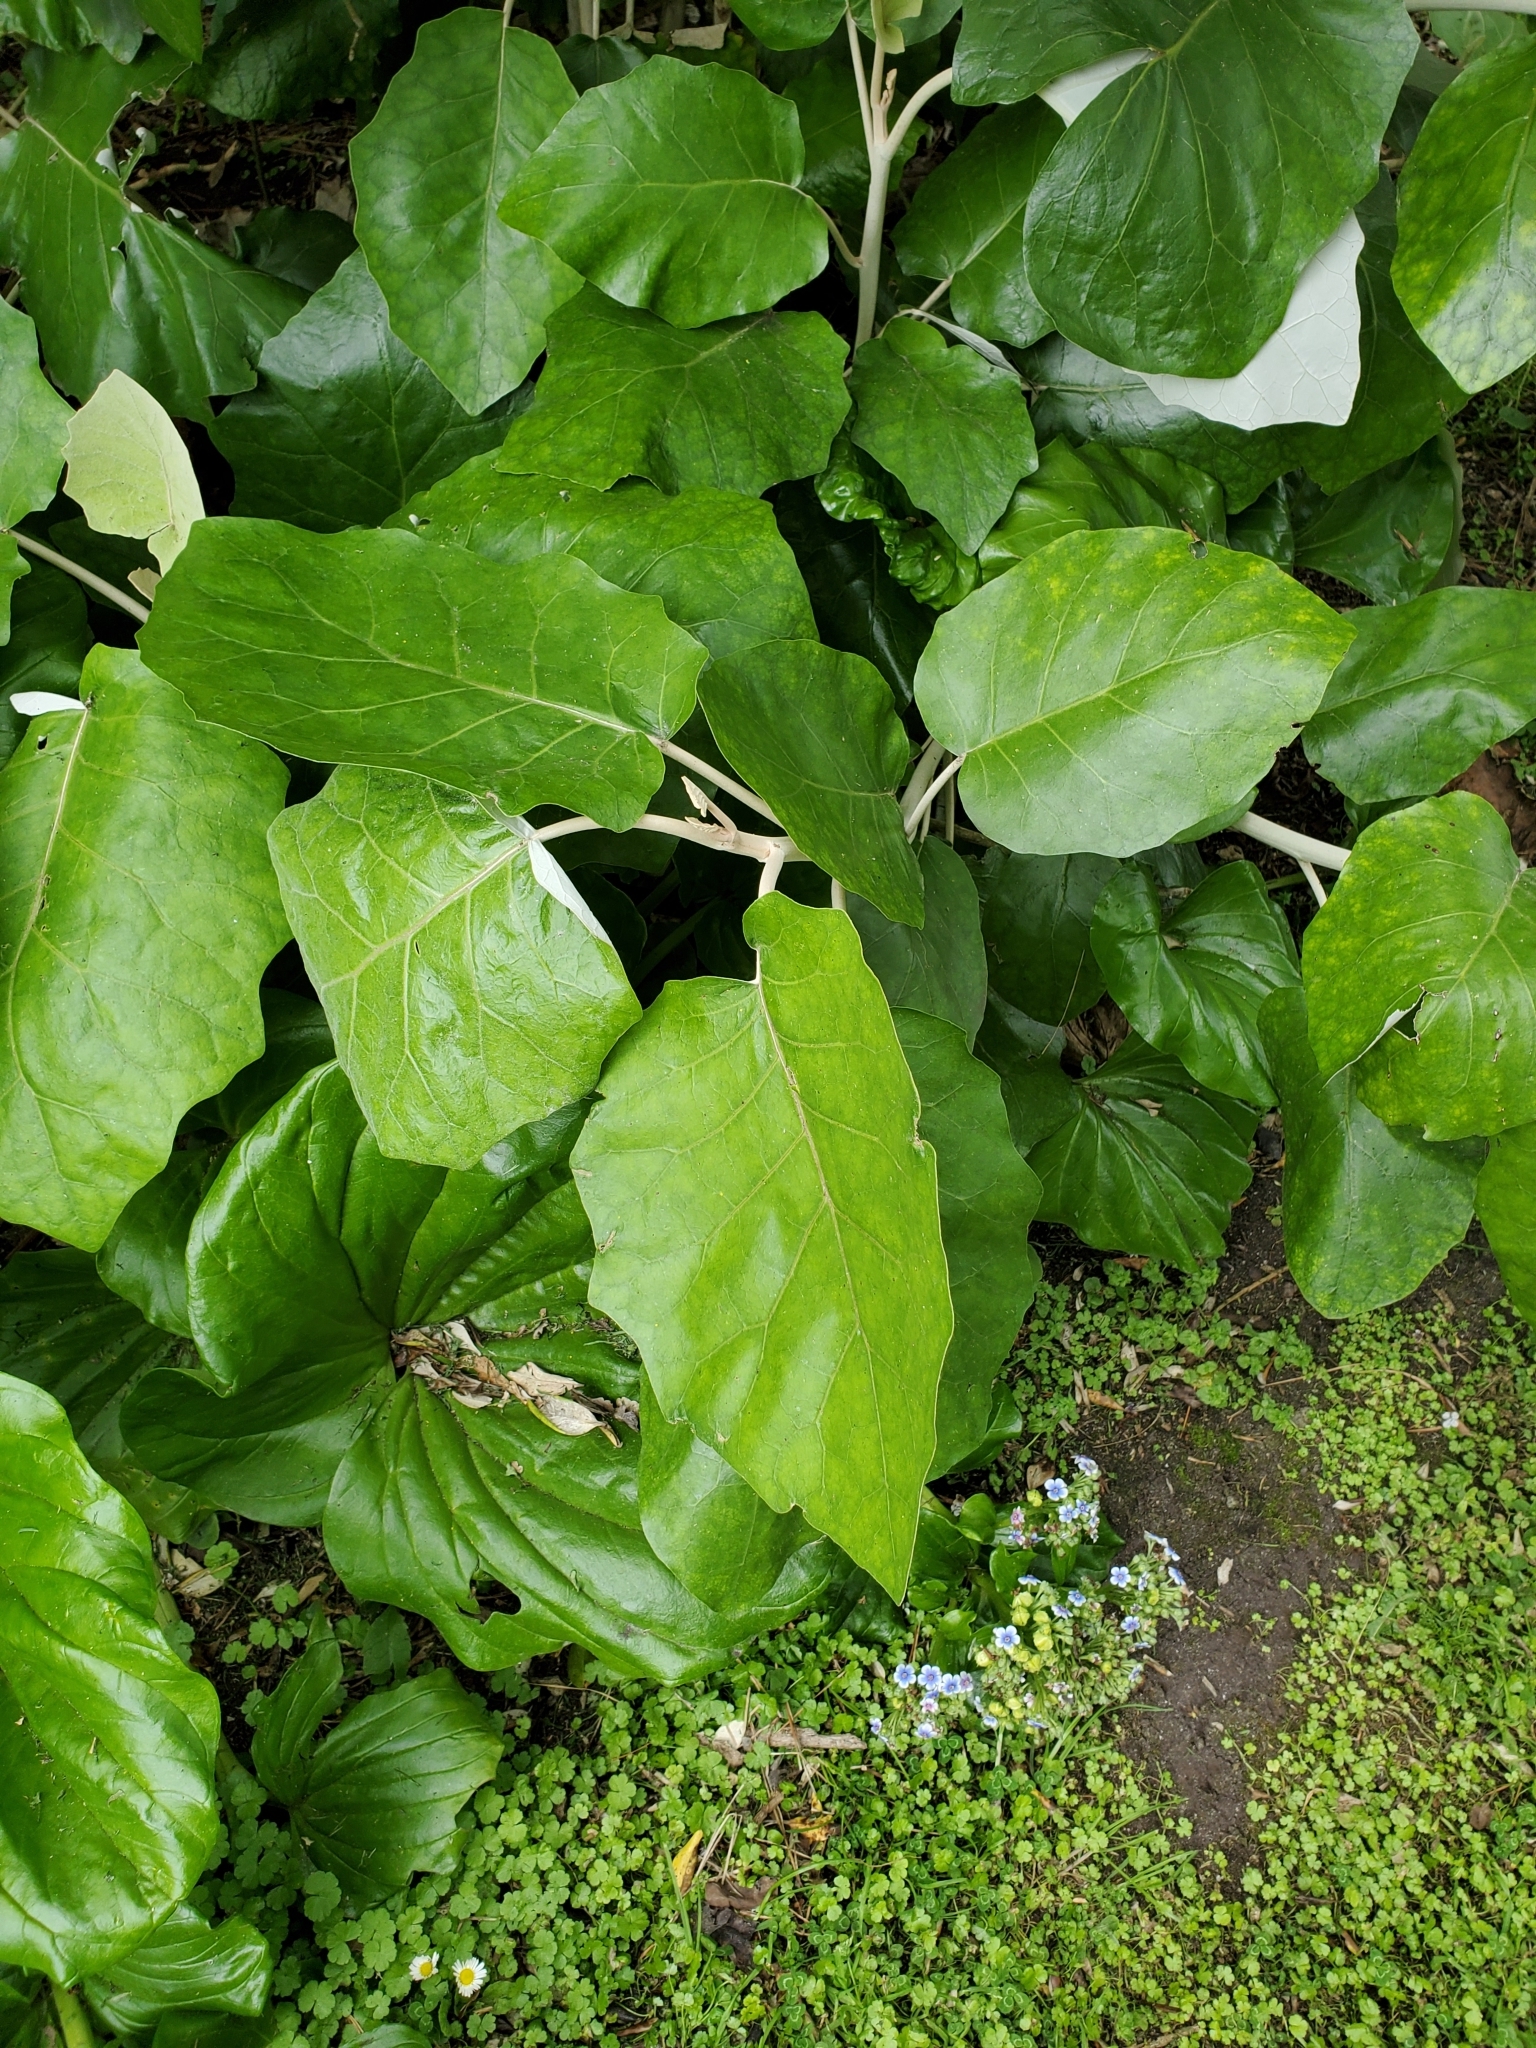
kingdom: Plantae
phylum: Tracheophyta
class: Magnoliopsida
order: Asterales
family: Asteraceae
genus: Brachyglottis
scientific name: Brachyglottis repanda
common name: Hedge ragwort
